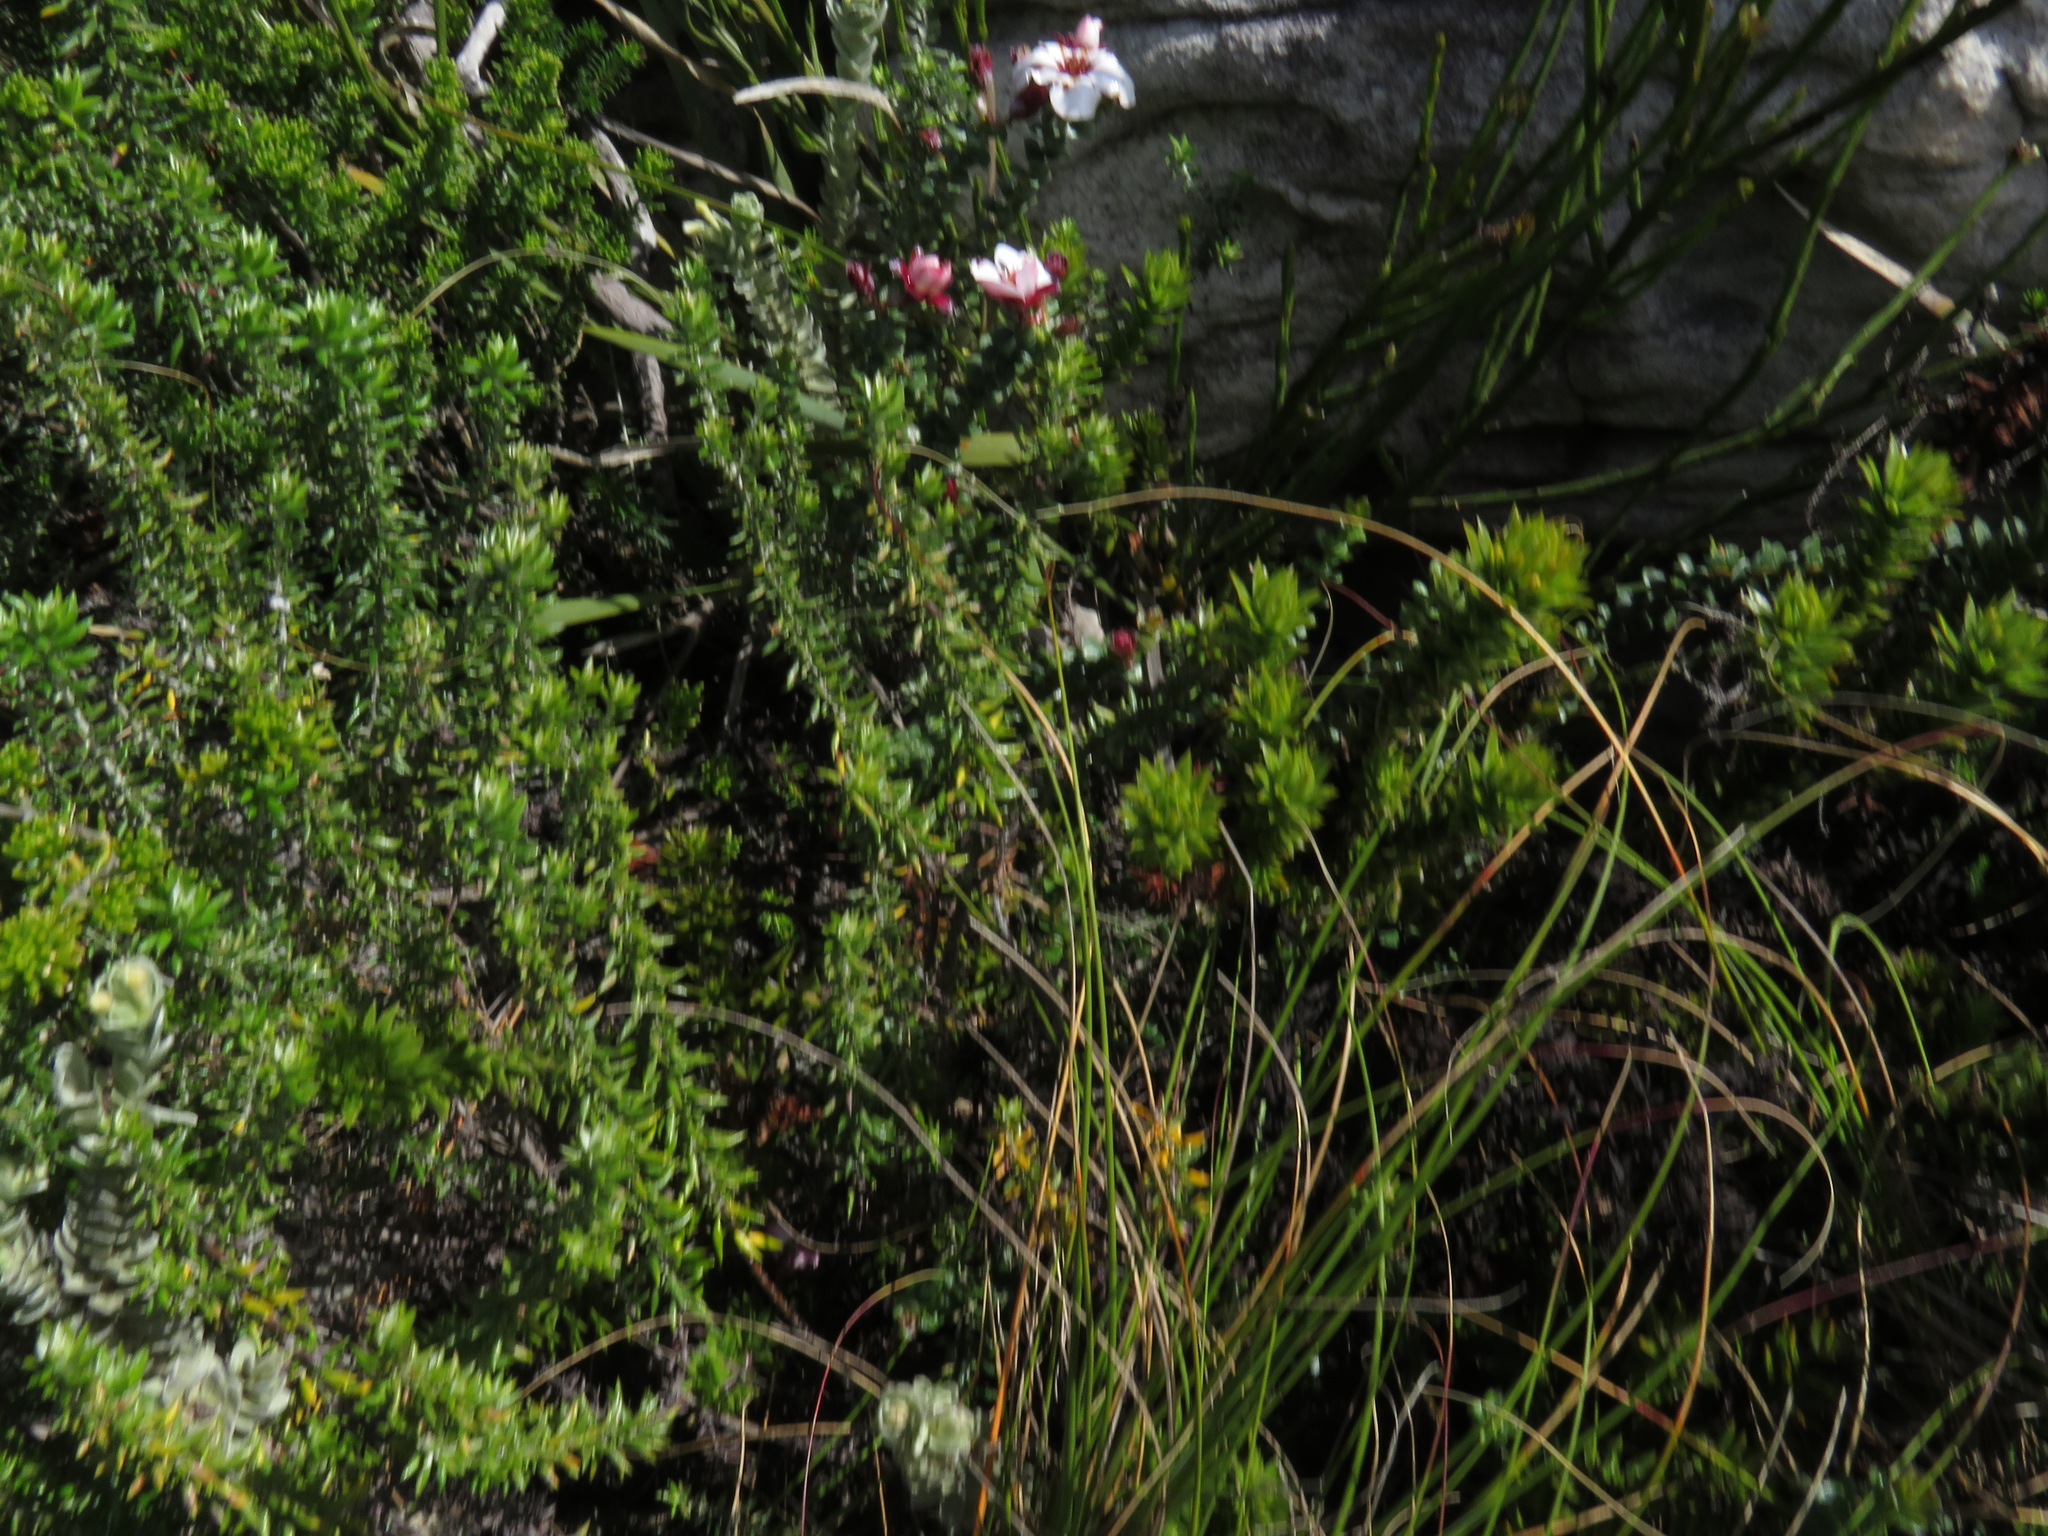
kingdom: Plantae
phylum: Tracheophyta
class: Magnoliopsida
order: Sapindales
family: Rutaceae
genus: Adenandra
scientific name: Adenandra villosa
